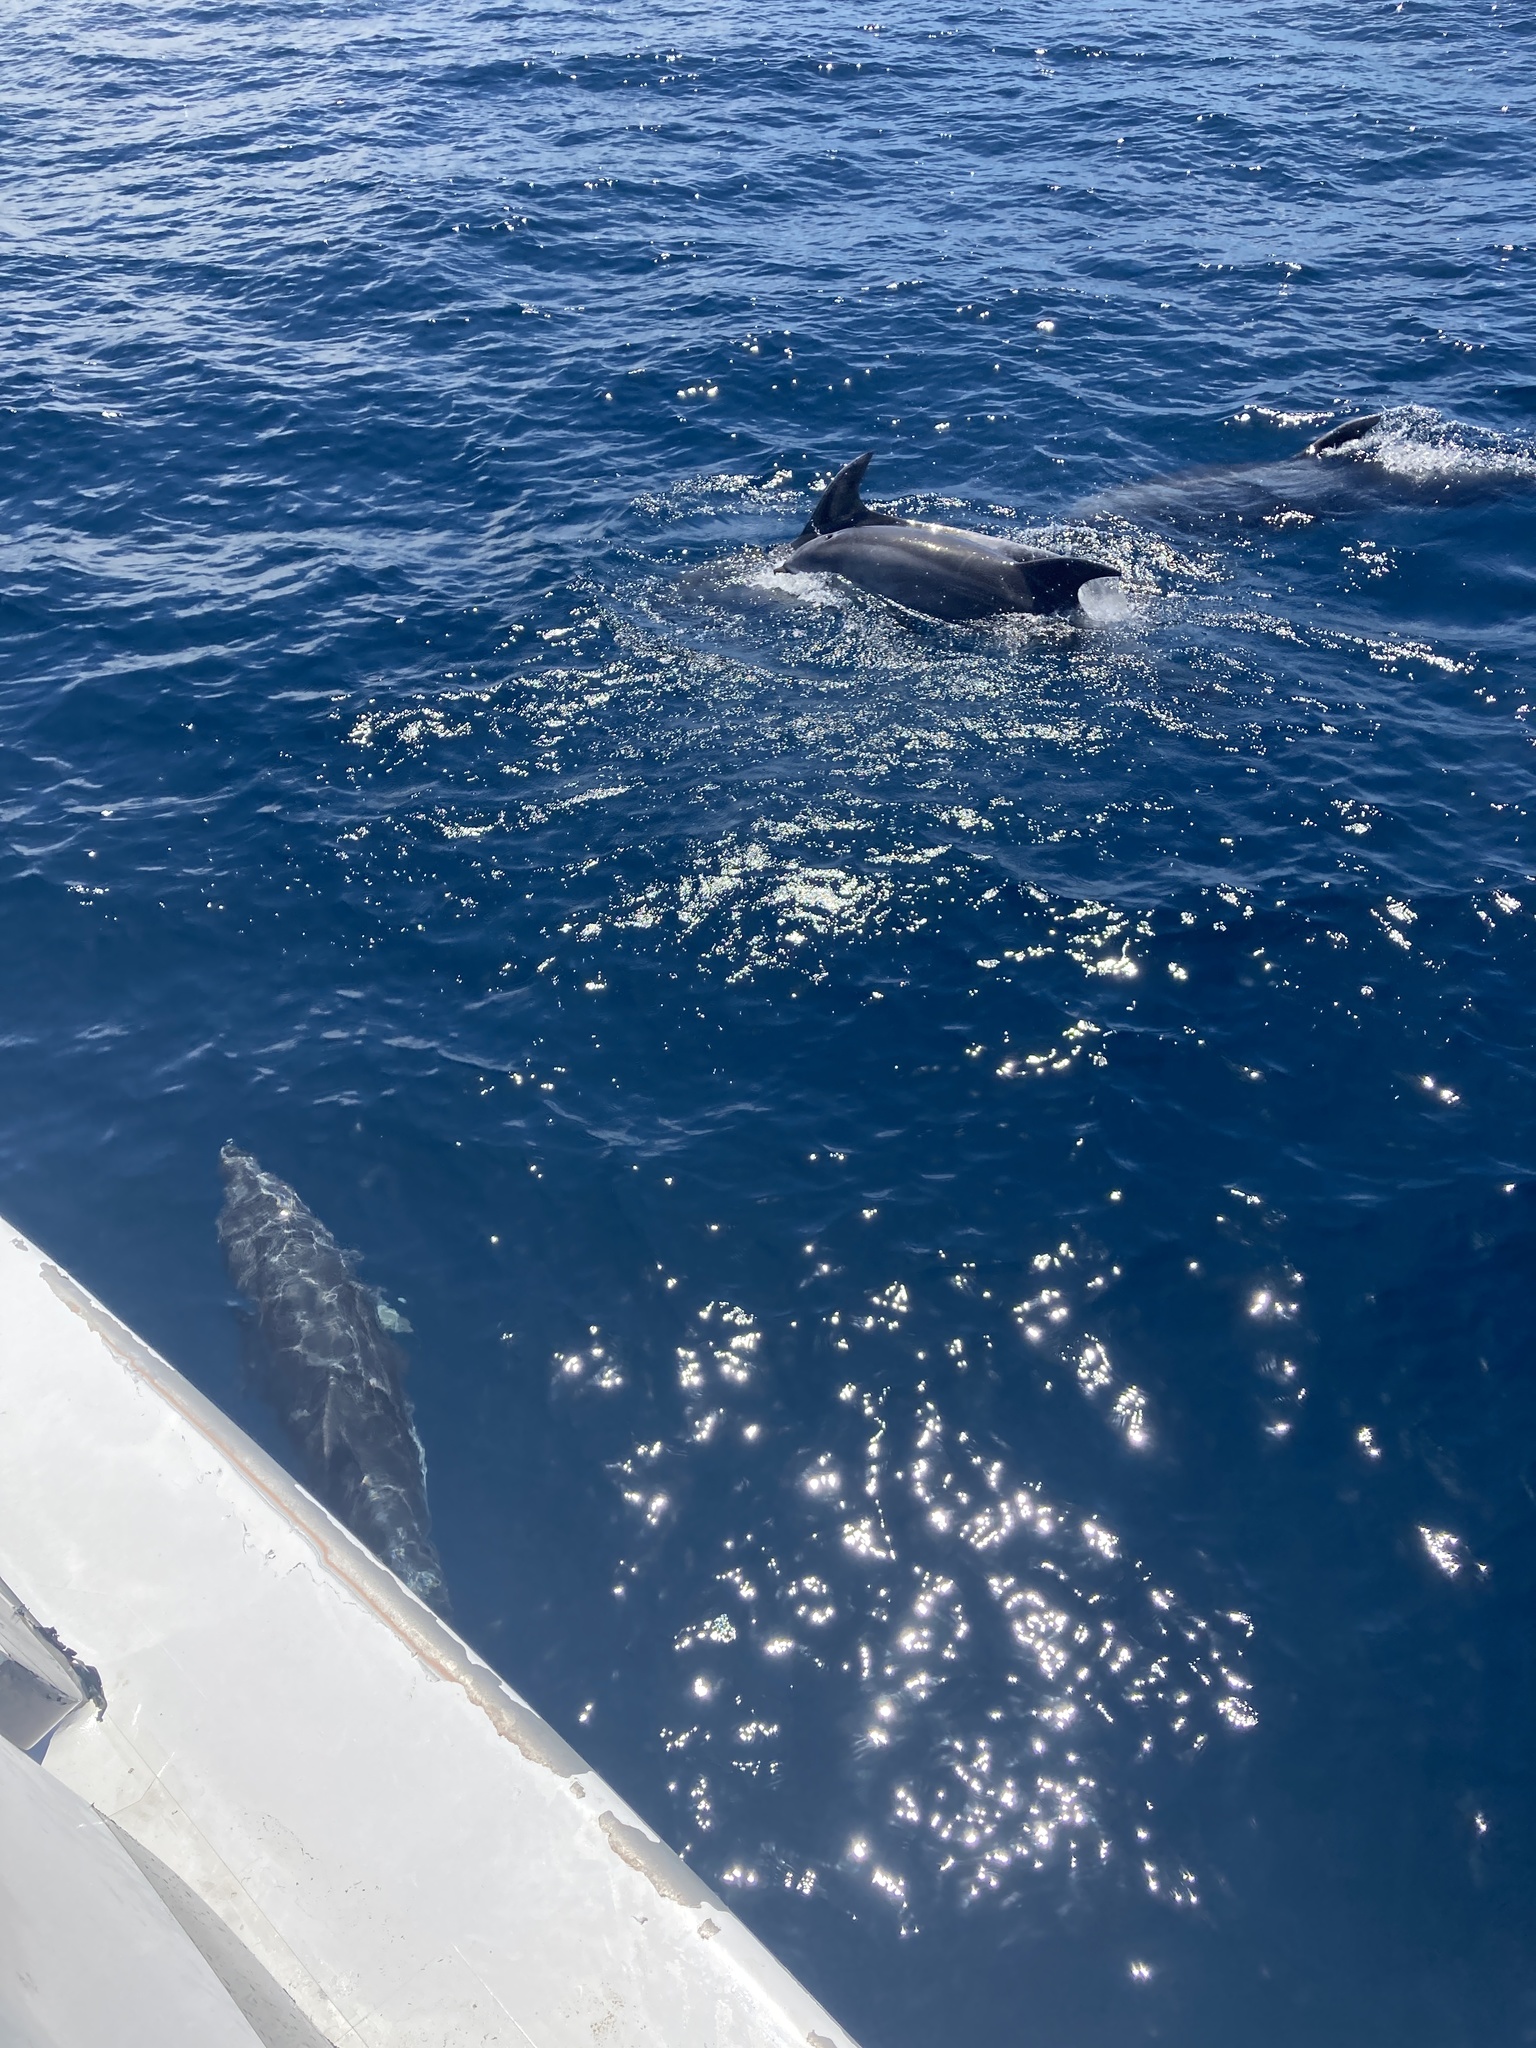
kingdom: Animalia
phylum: Chordata
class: Mammalia
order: Cetacea
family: Delphinidae
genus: Tursiops
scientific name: Tursiops truncatus
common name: Bottlenose dolphin
